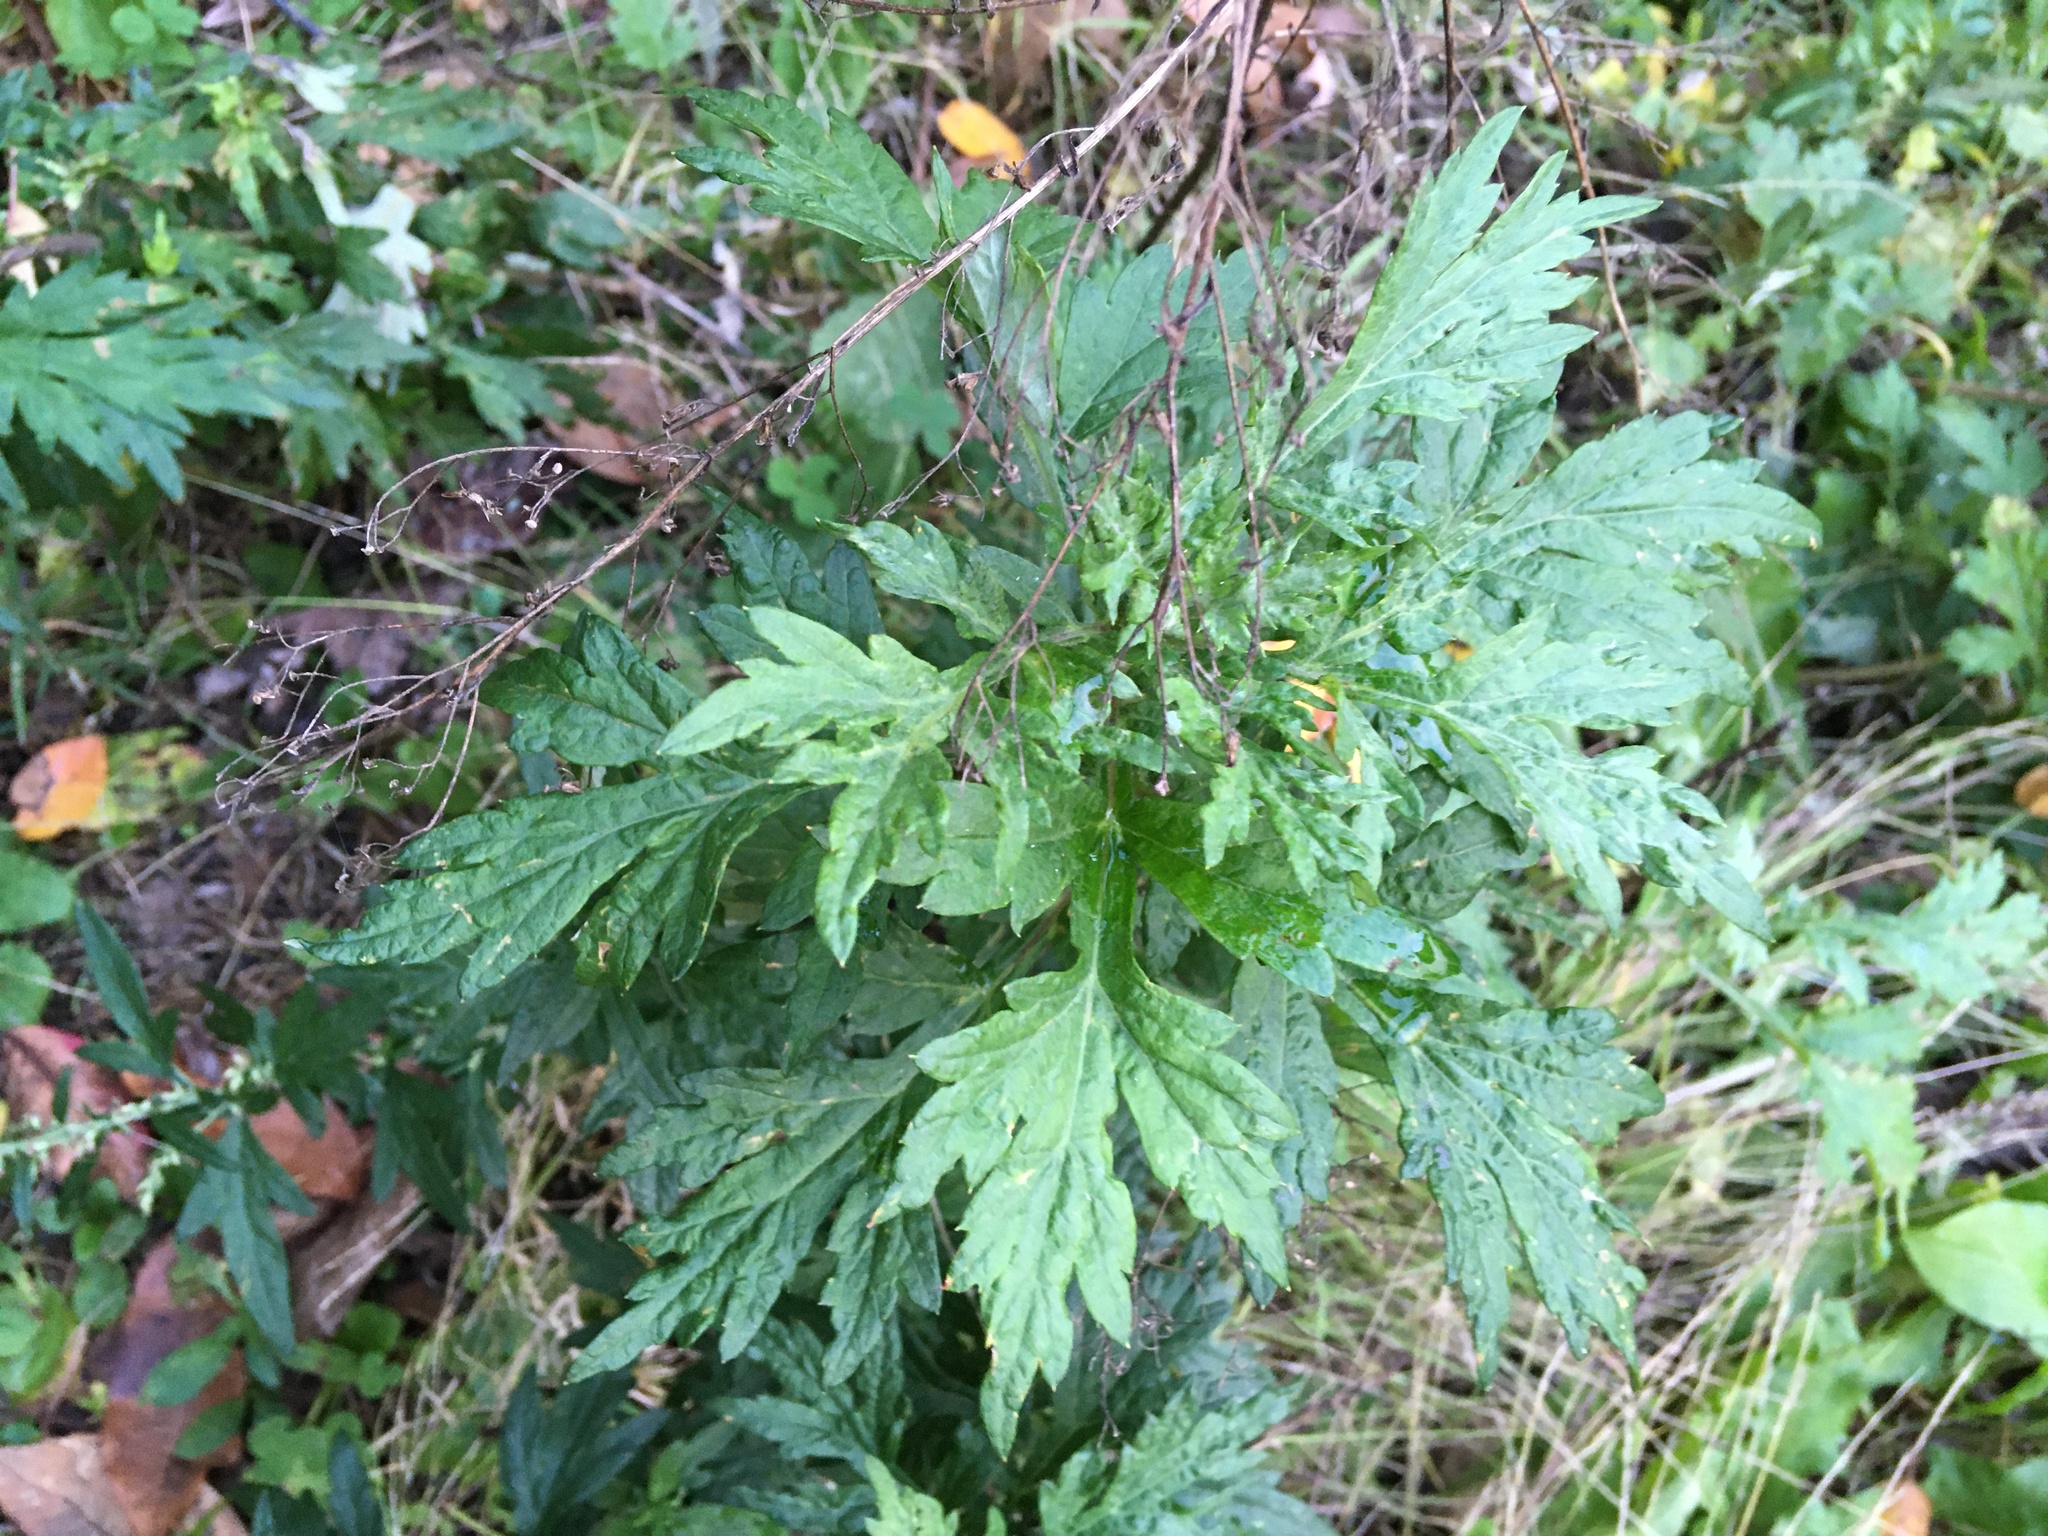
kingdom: Plantae
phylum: Tracheophyta
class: Magnoliopsida
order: Asterales
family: Asteraceae
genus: Artemisia
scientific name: Artemisia vulgaris
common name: Mugwort
